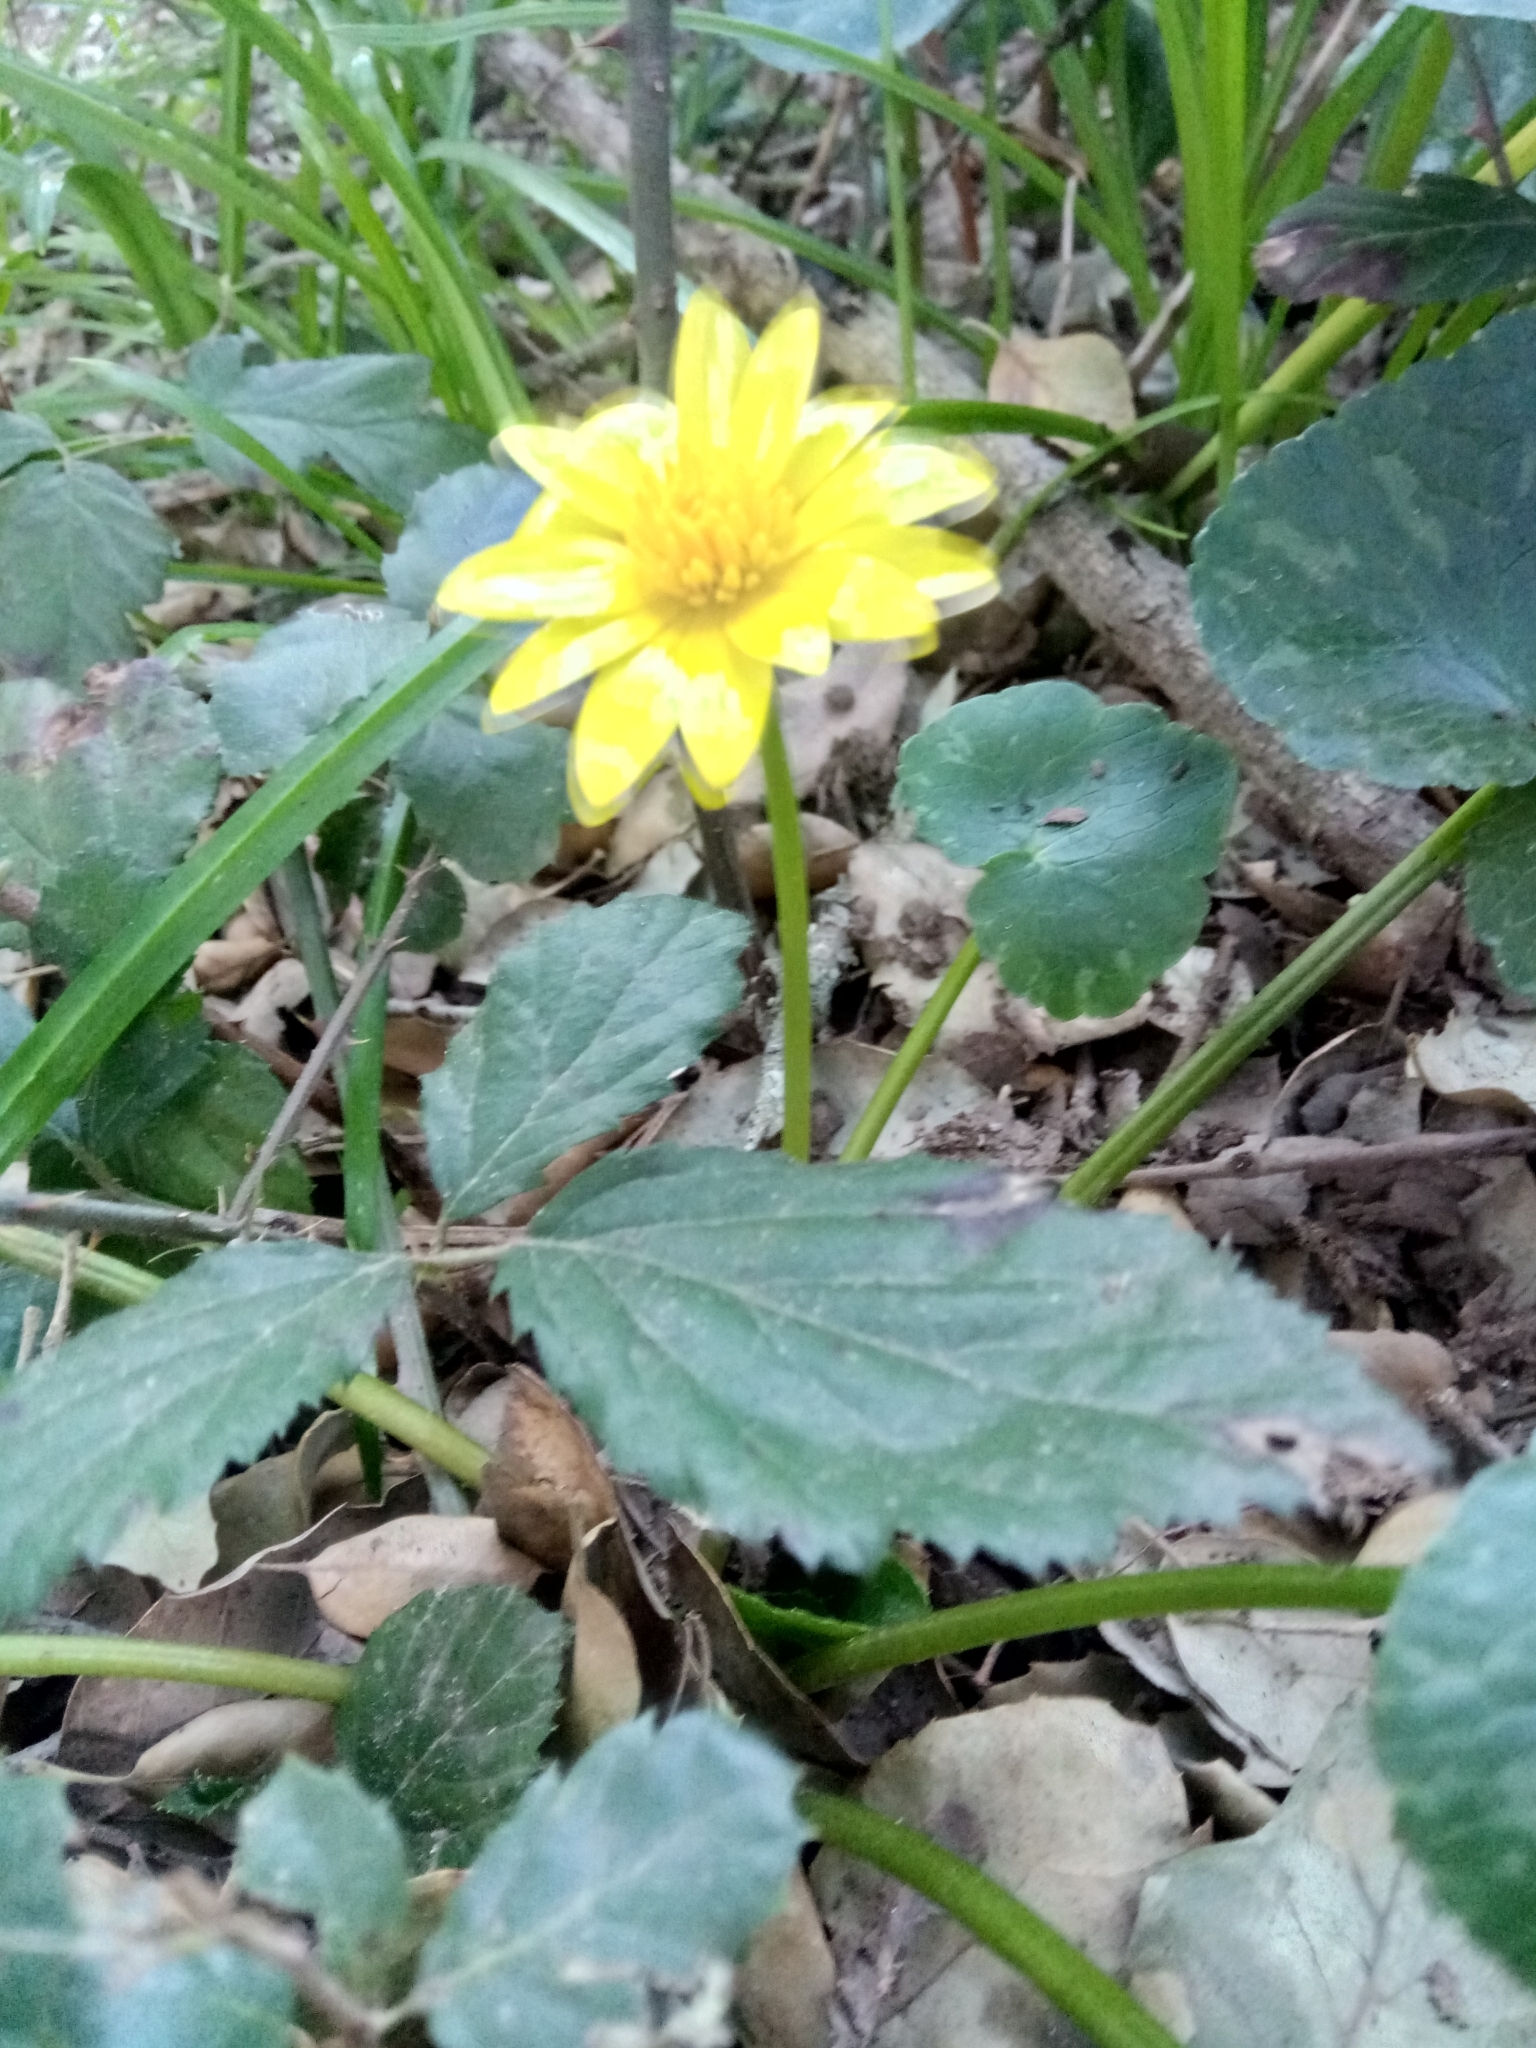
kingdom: Plantae
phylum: Tracheophyta
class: Magnoliopsida
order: Ranunculales
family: Ranunculaceae
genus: Ficaria
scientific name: Ficaria verna
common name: Lesser celandine
